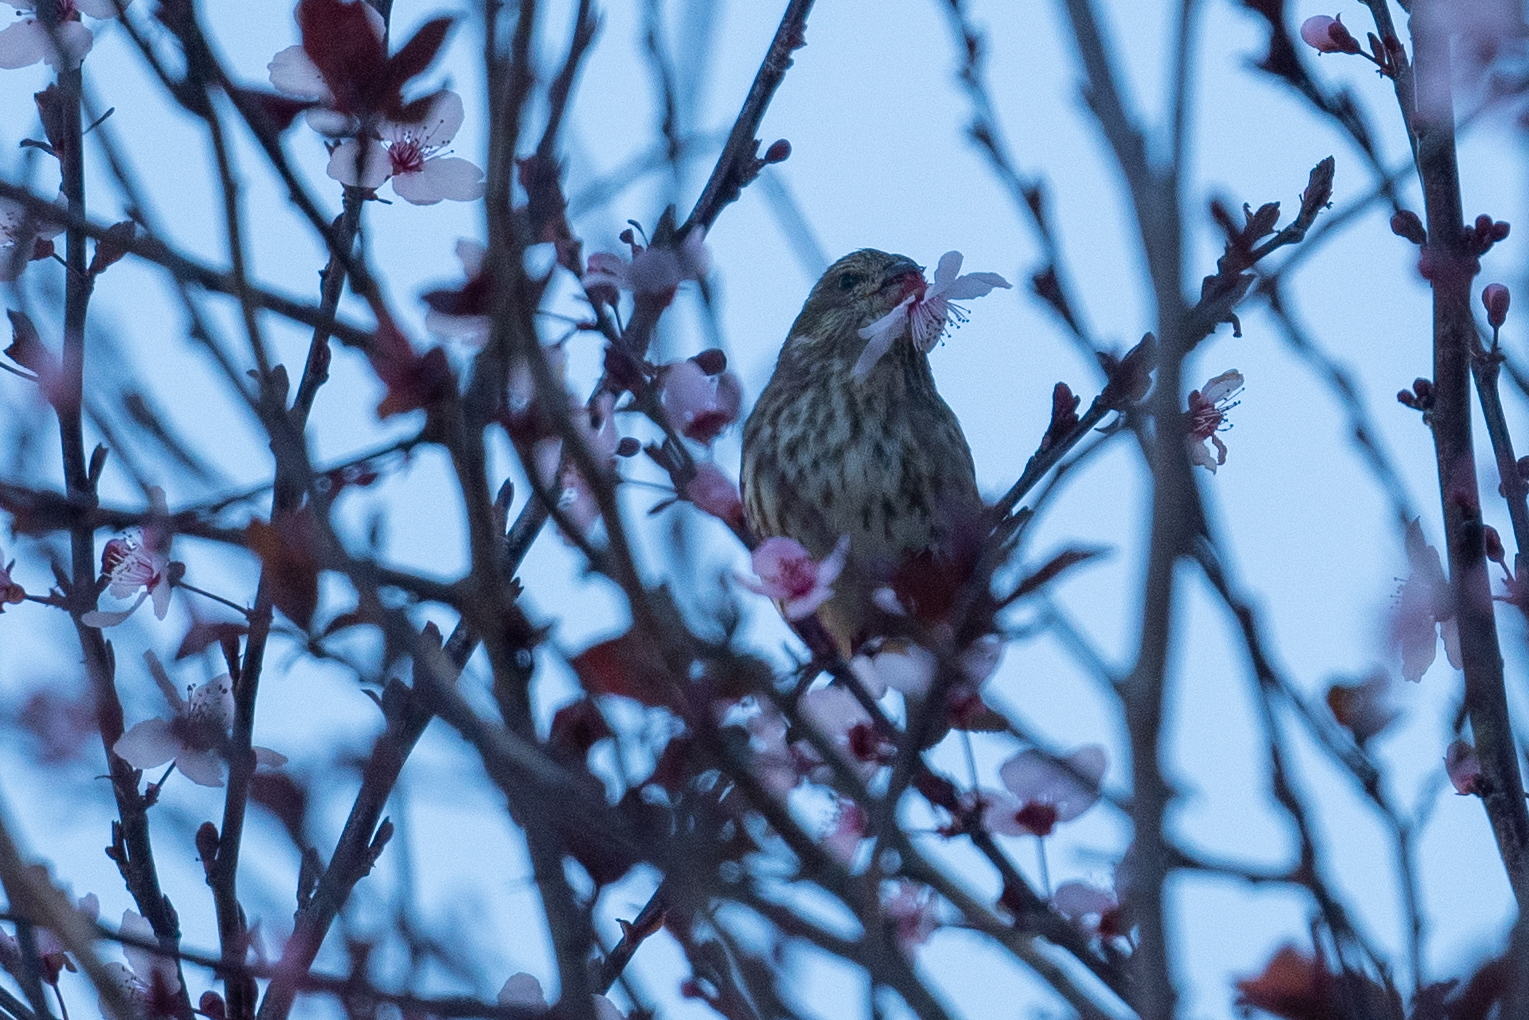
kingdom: Animalia
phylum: Chordata
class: Aves
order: Passeriformes
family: Fringillidae
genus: Haemorhous
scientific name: Haemorhous mexicanus
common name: House finch
